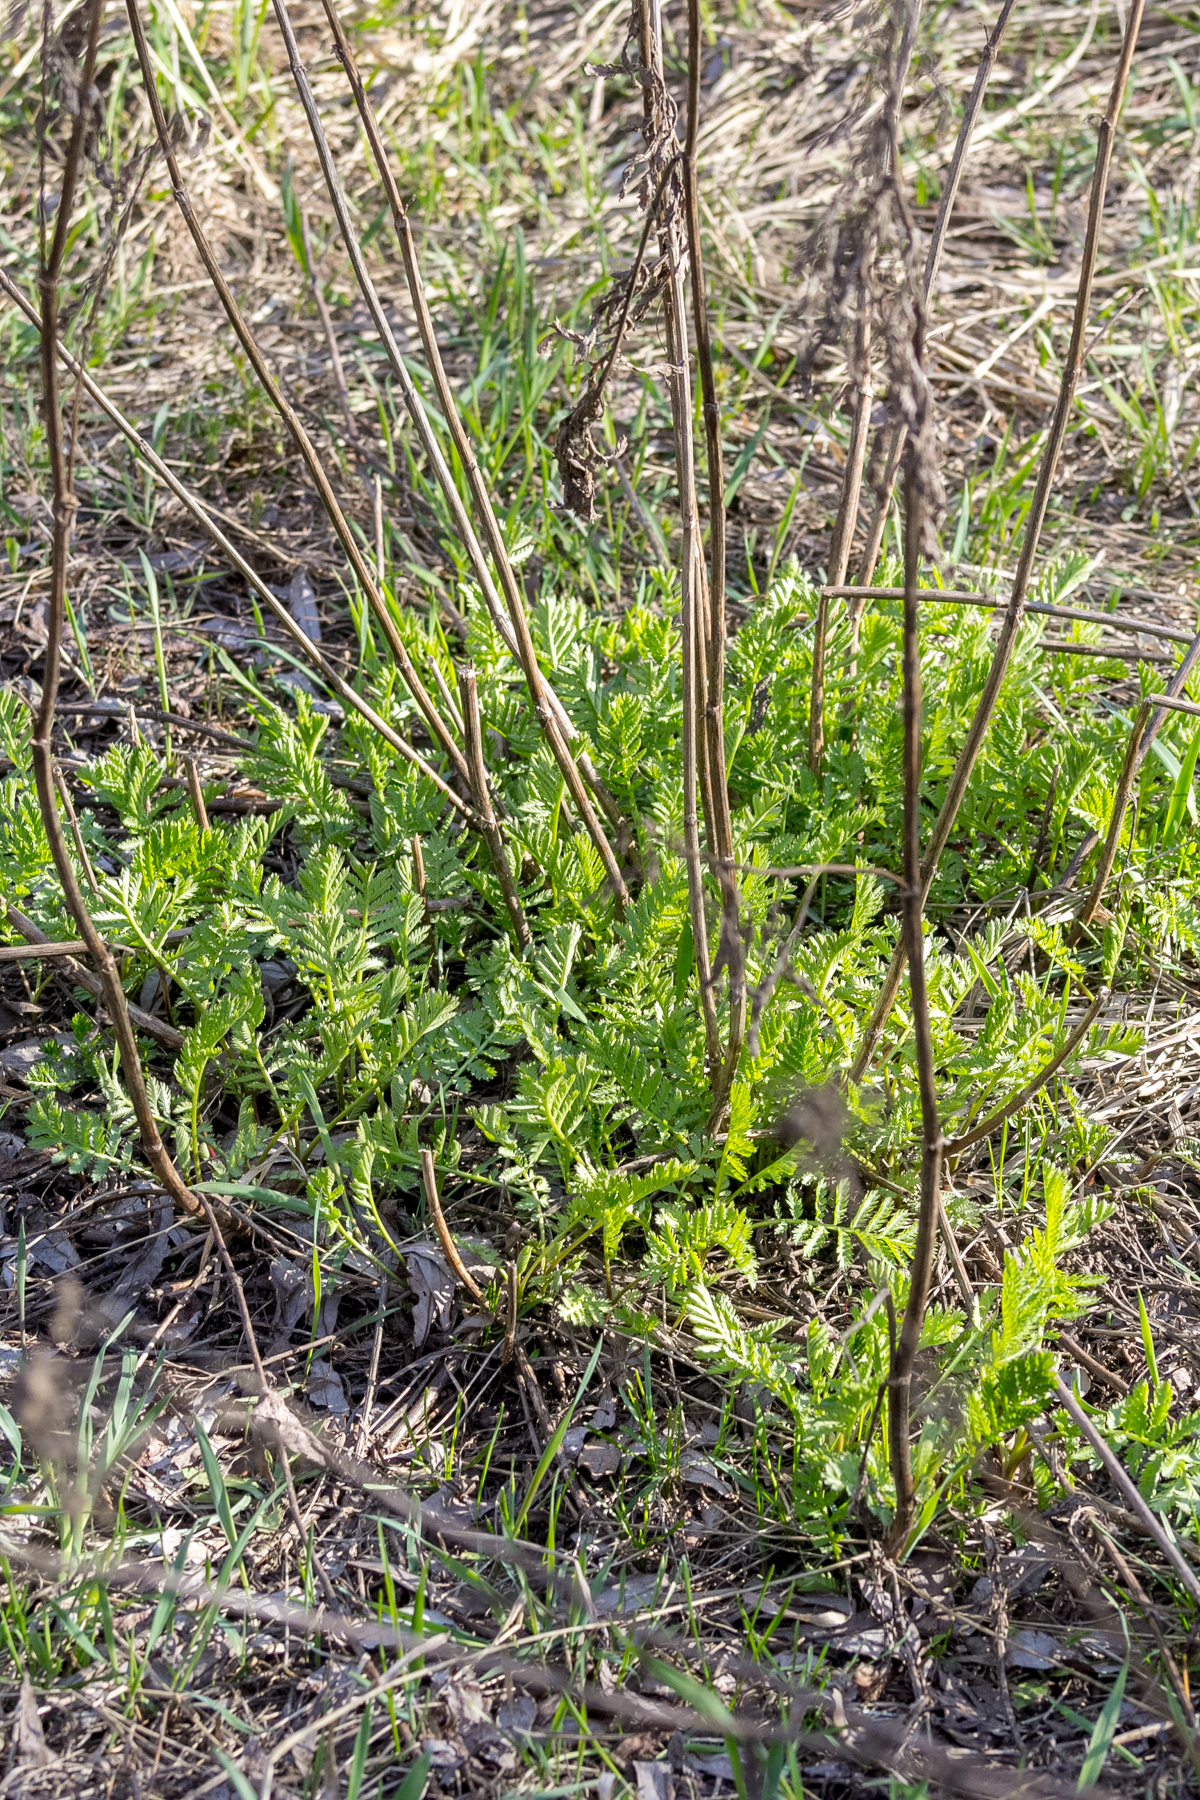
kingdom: Plantae
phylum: Tracheophyta
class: Magnoliopsida
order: Asterales
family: Asteraceae
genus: Tanacetum
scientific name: Tanacetum vulgare
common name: Common tansy
